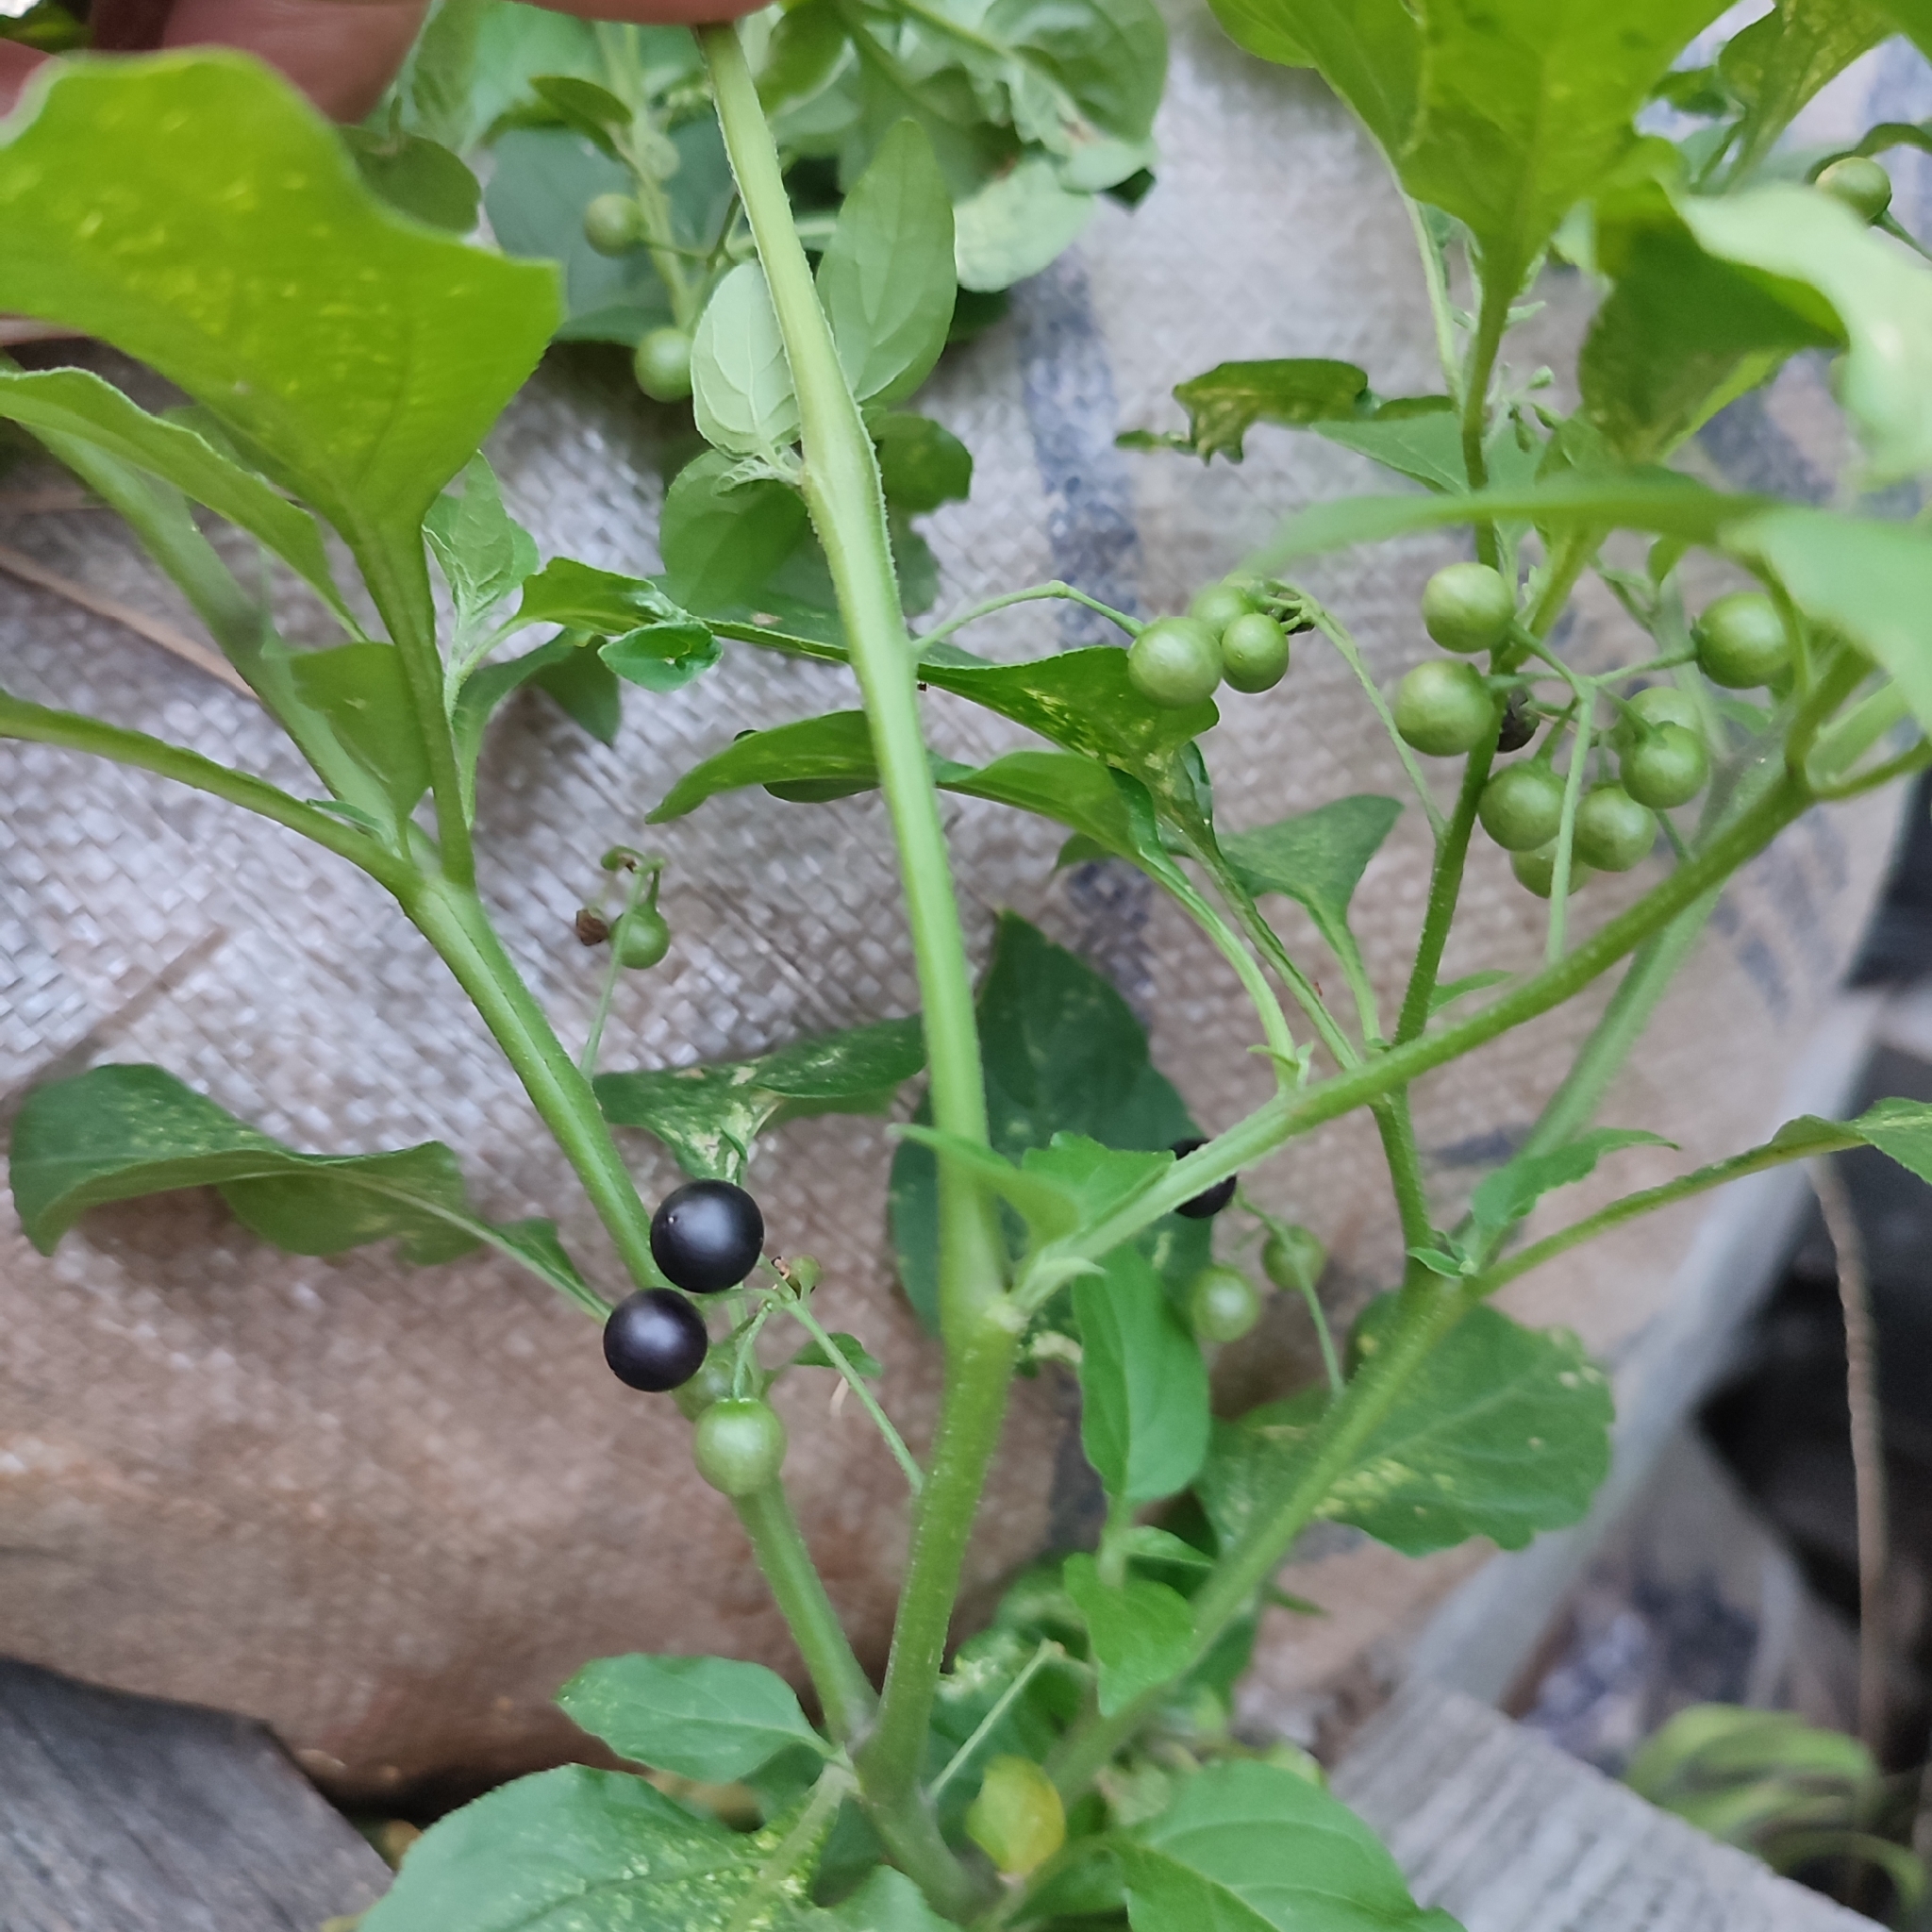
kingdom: Plantae
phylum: Tracheophyta
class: Magnoliopsida
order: Solanales
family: Solanaceae
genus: Solanum
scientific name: Solanum americanum
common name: American black nightshade
